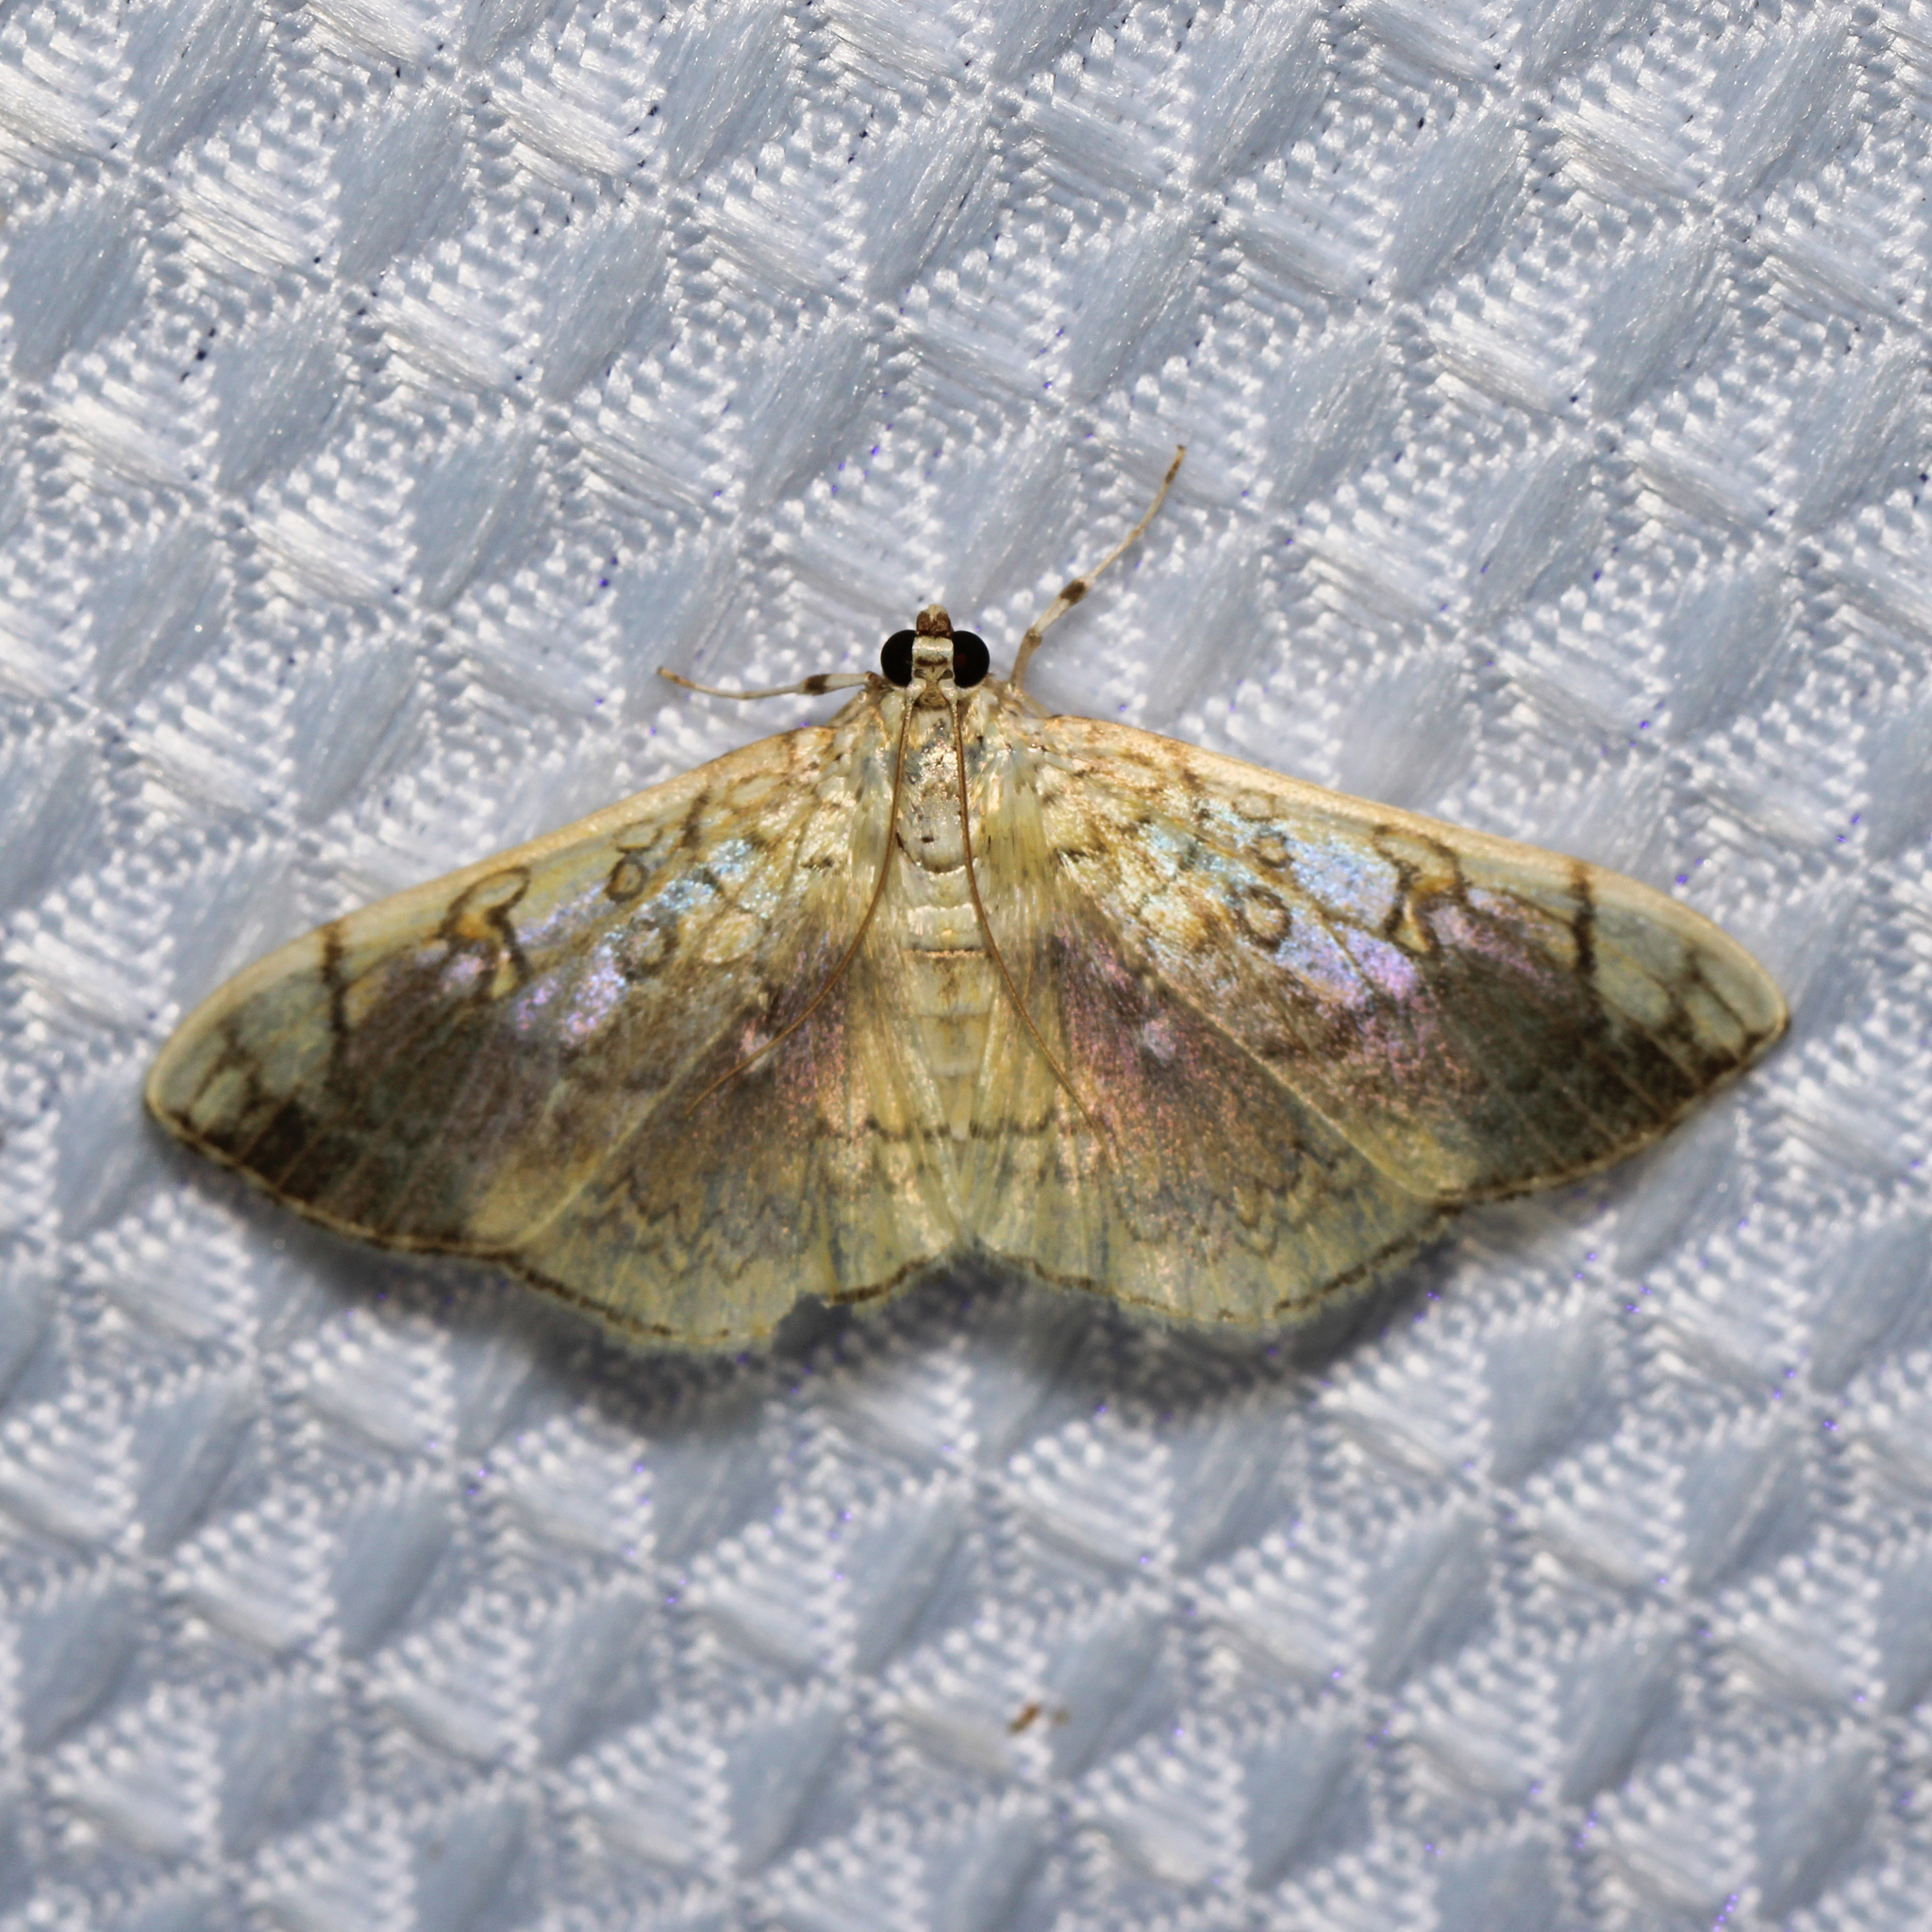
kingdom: Animalia
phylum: Arthropoda
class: Insecta
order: Lepidoptera
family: Crambidae
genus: Pantographa
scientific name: Pantographa limata
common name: Basswood leafroller moth
